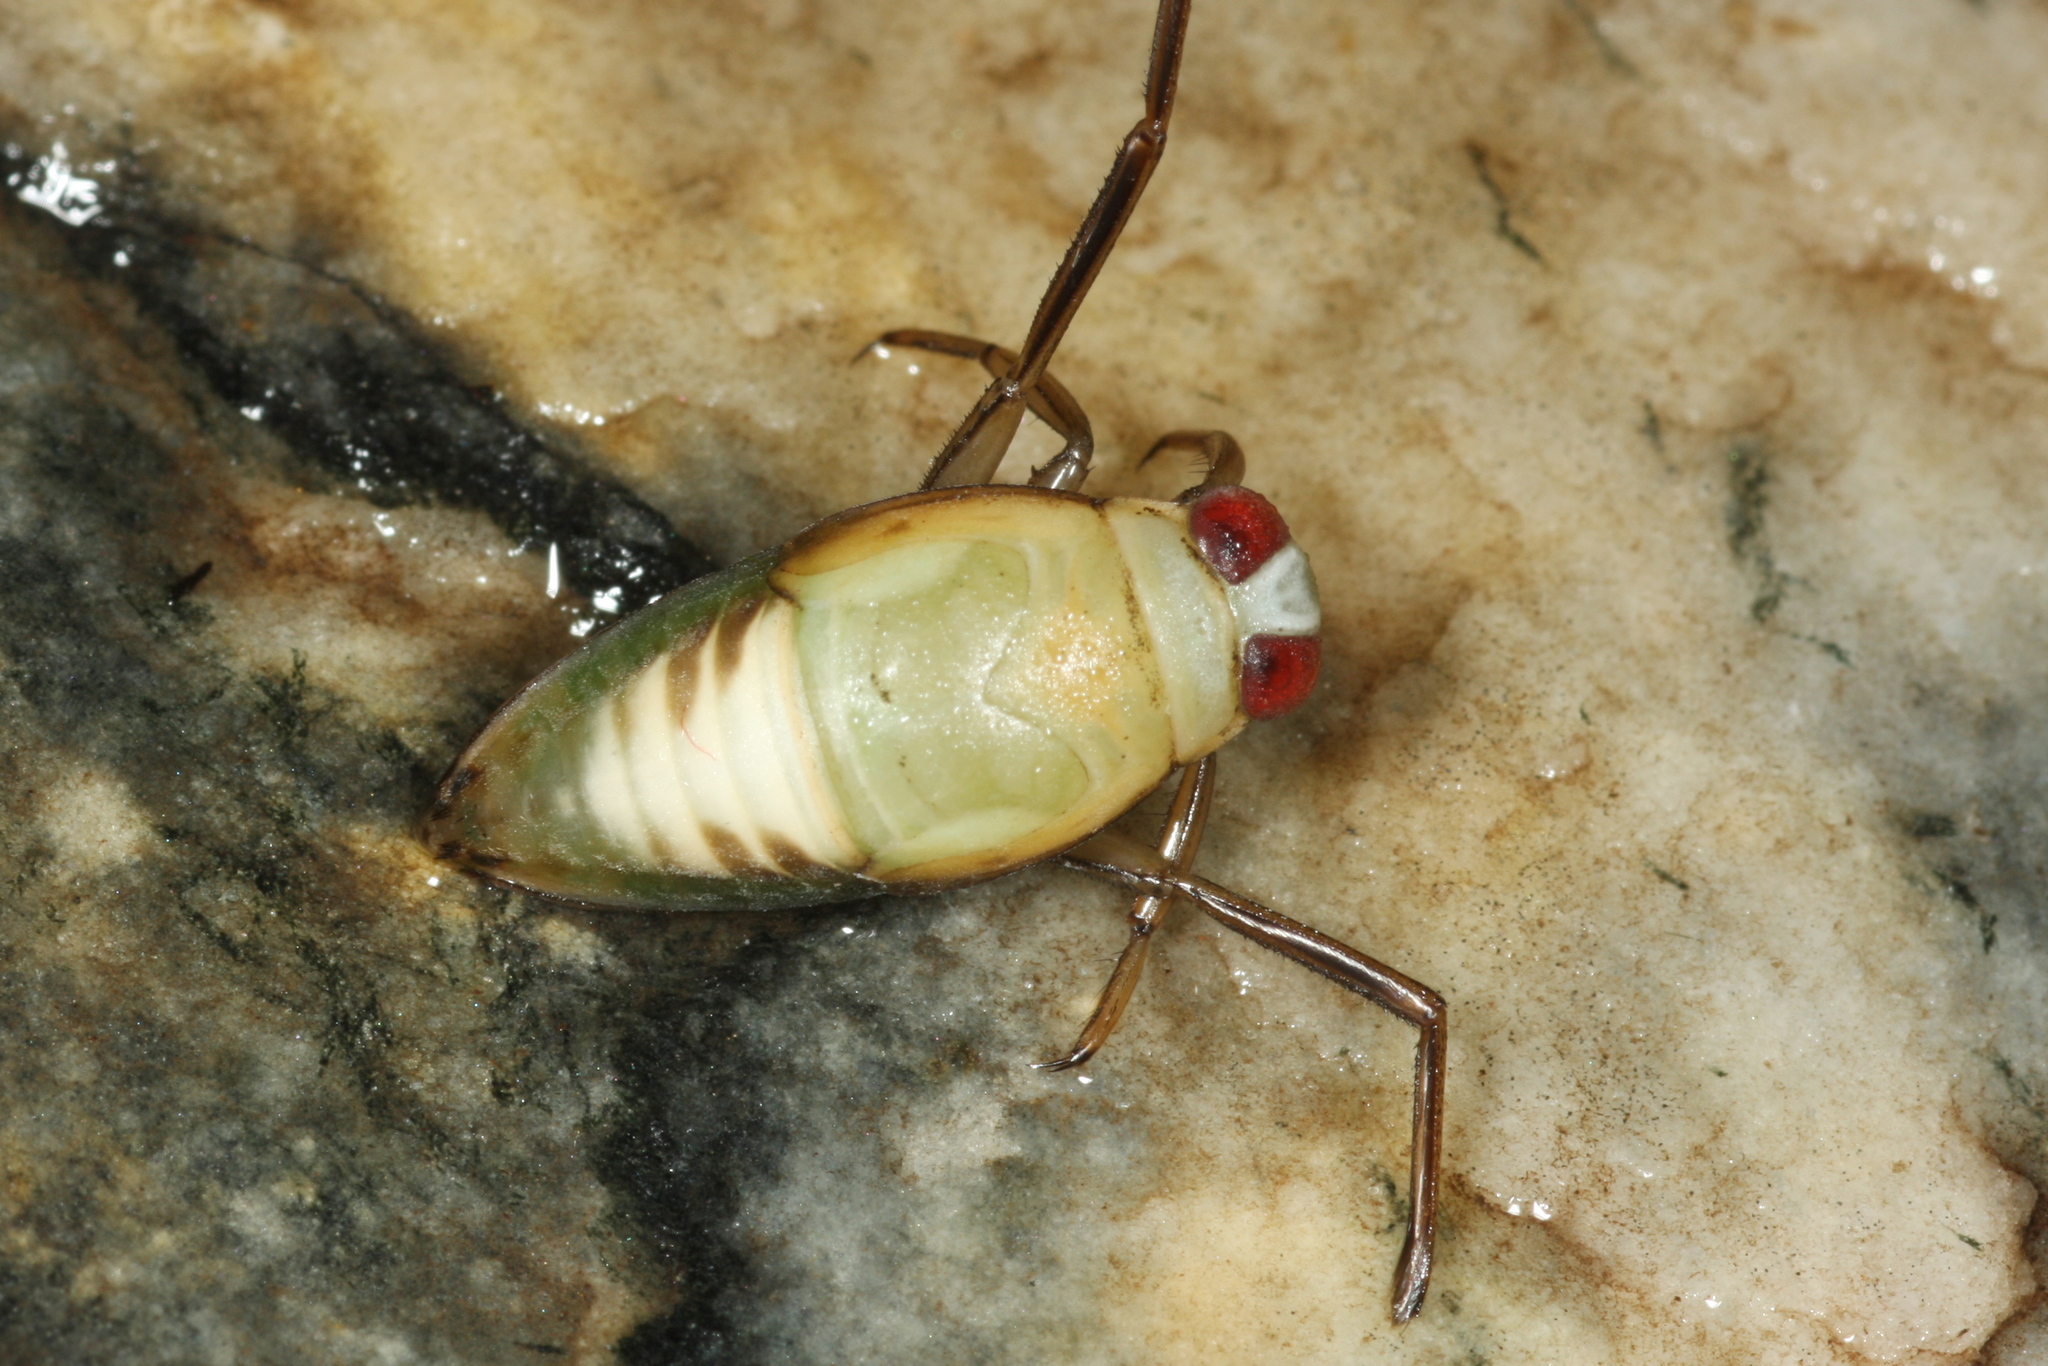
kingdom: Animalia
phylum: Arthropoda
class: Insecta
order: Hemiptera
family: Notonectidae
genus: Notonecta
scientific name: Notonecta
